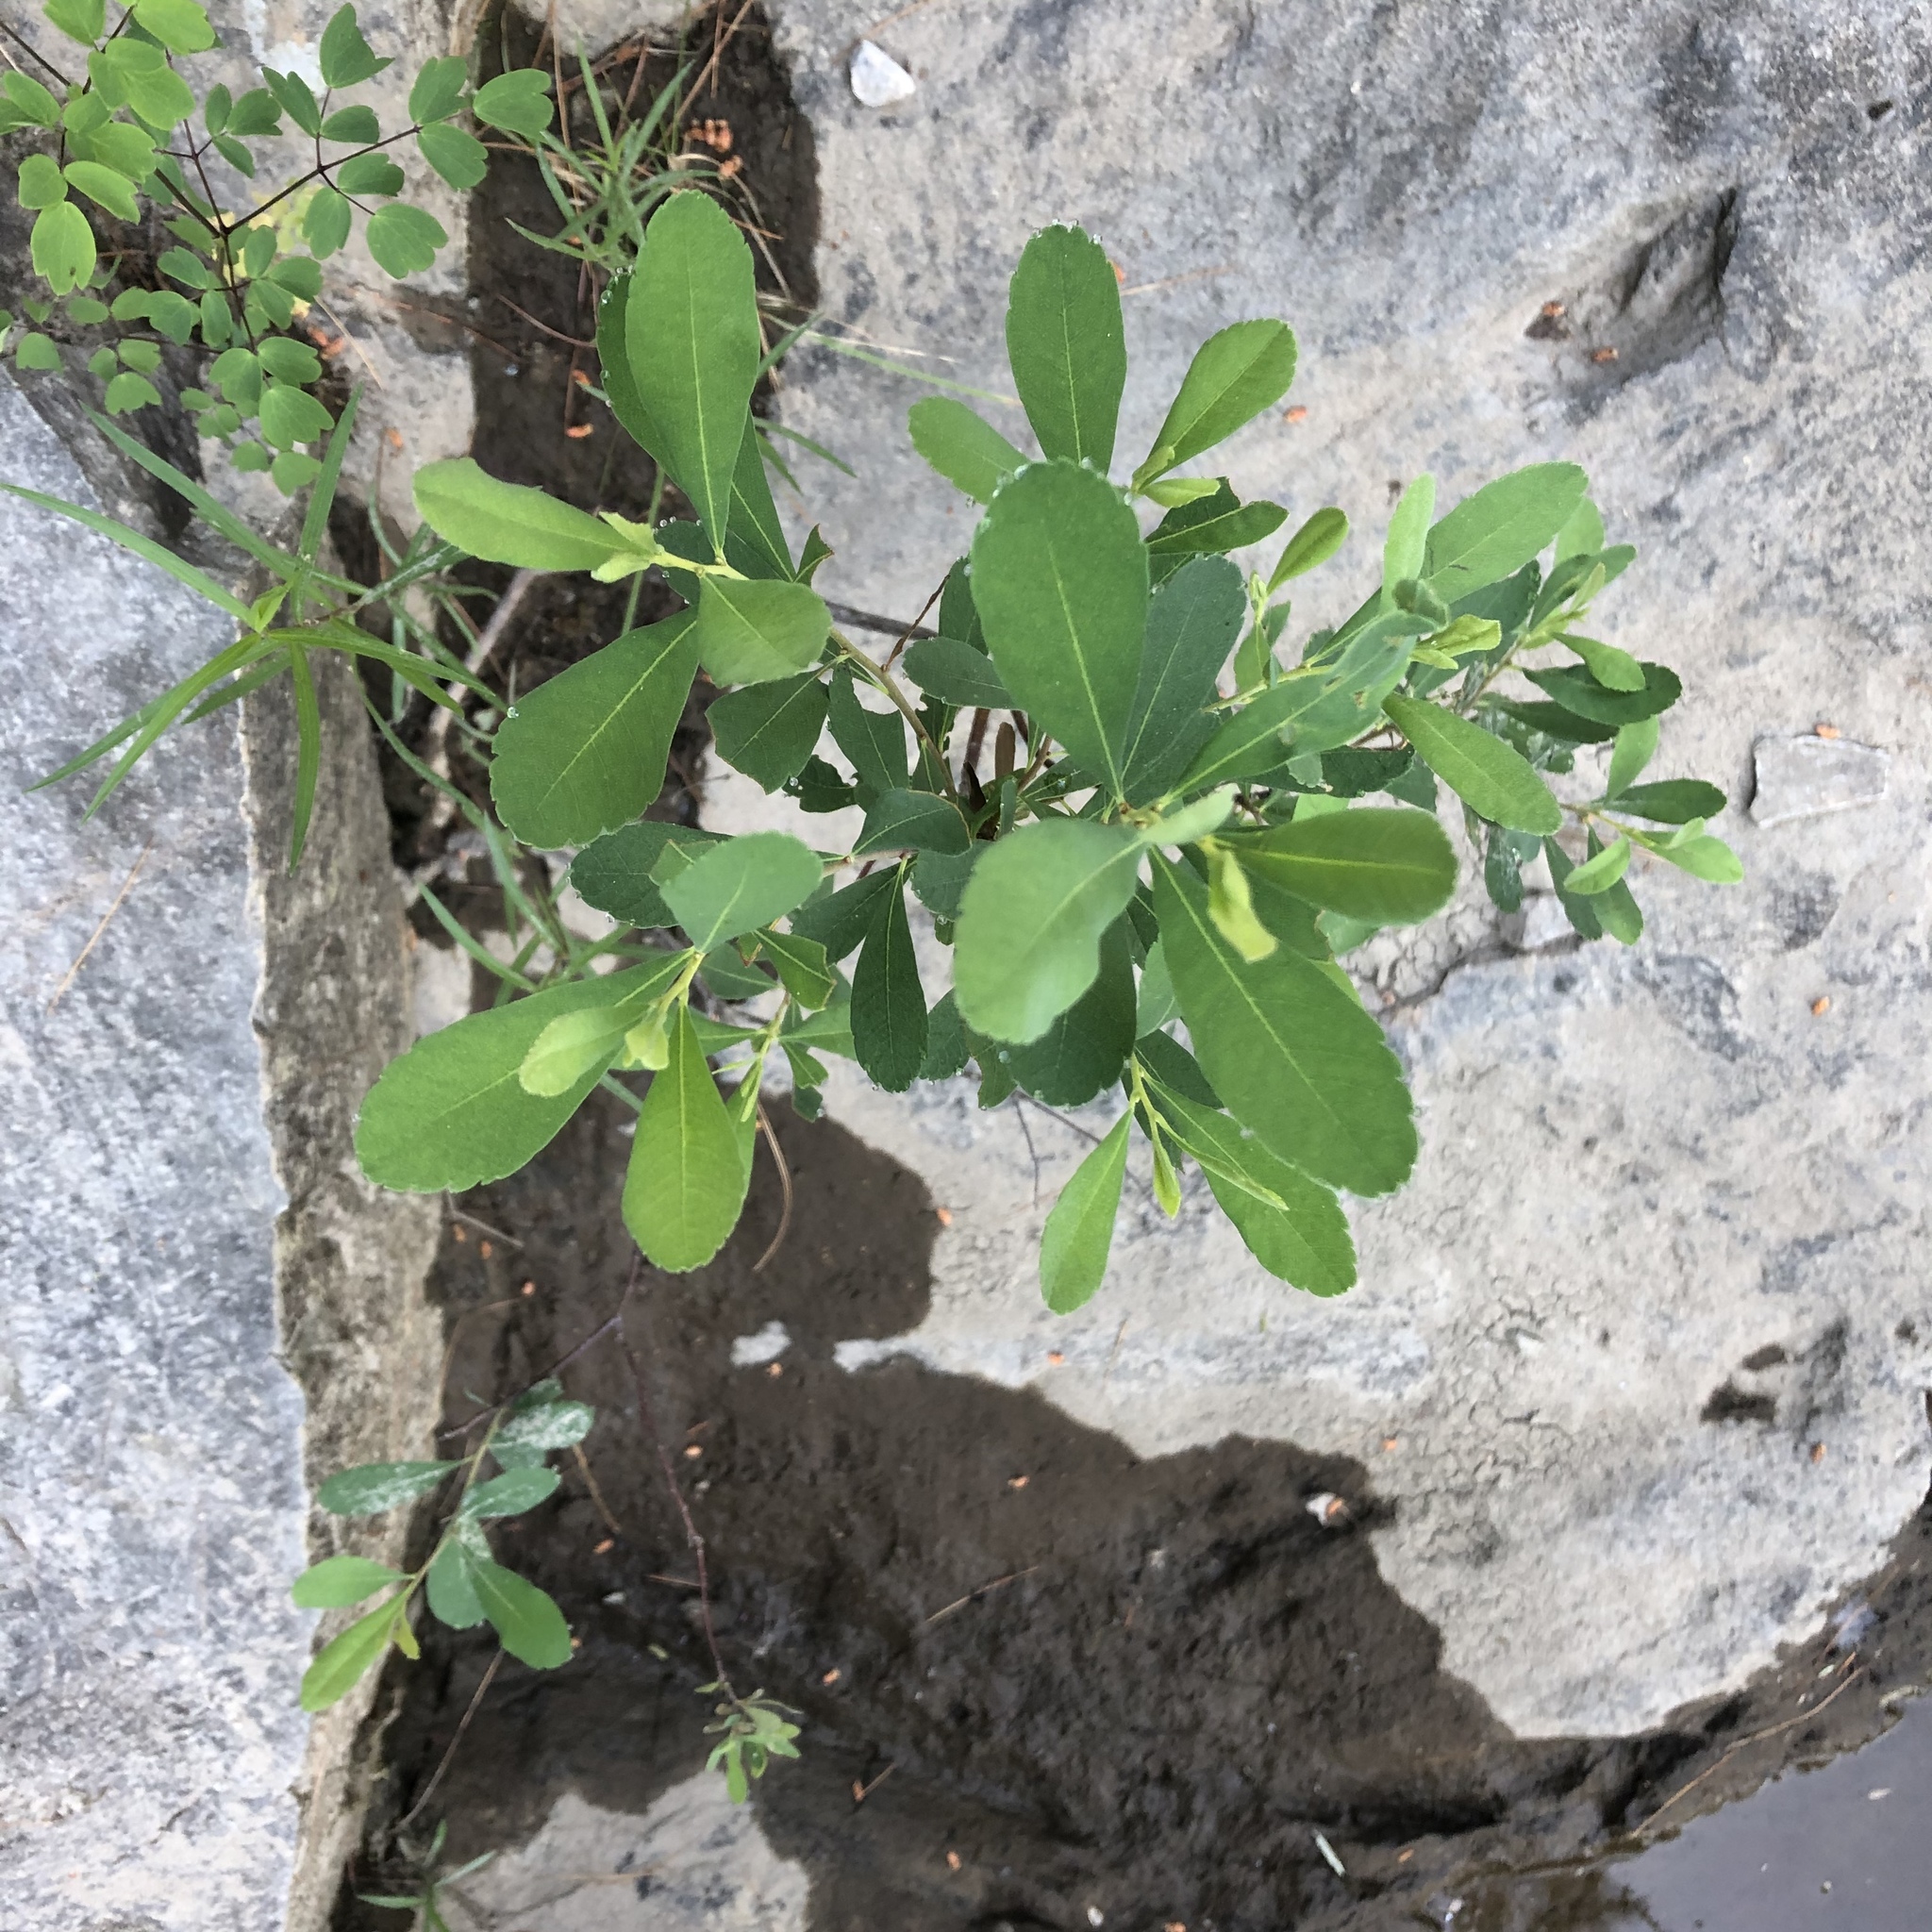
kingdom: Plantae
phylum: Tracheophyta
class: Magnoliopsida
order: Fagales
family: Myricaceae
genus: Myrica
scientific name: Myrica gale
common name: Sweet gale
